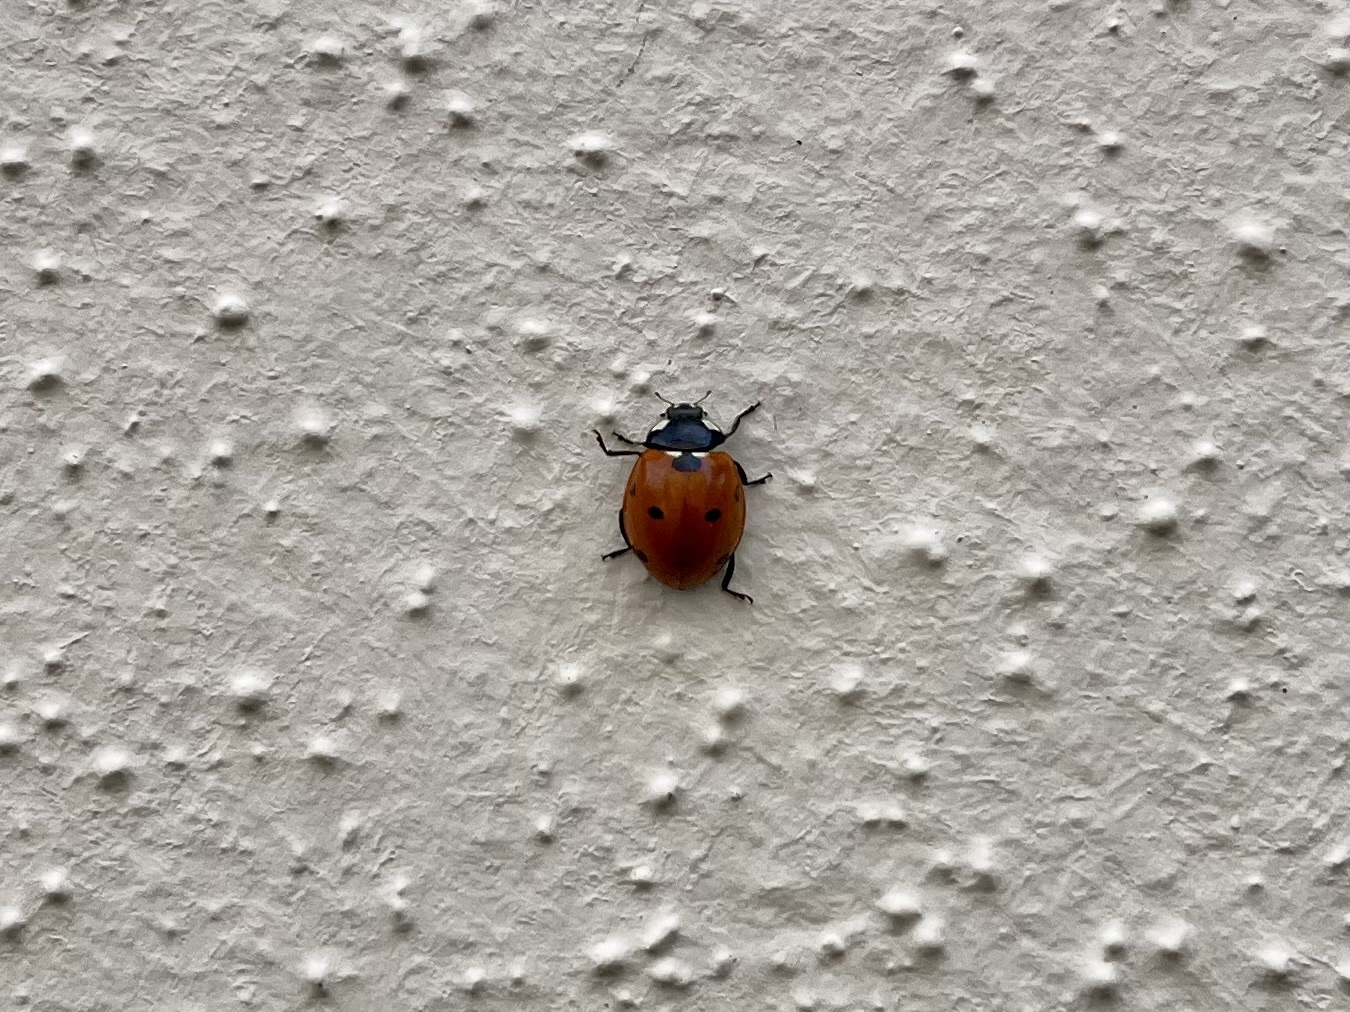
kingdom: Animalia
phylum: Arthropoda
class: Insecta
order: Coleoptera
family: Coccinellidae
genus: Coccinella
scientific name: Coccinella septempunctata
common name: Sevenspotted lady beetle
